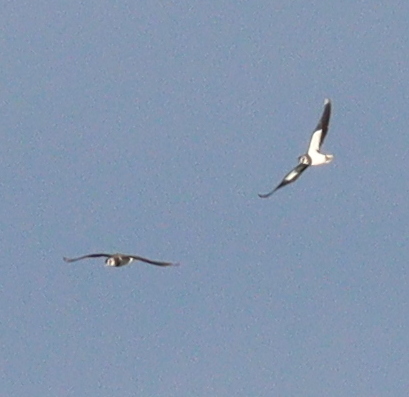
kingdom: Animalia
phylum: Chordata
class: Aves
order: Charadriiformes
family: Charadriidae
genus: Vanellus
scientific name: Vanellus vanellus
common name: Northern lapwing
